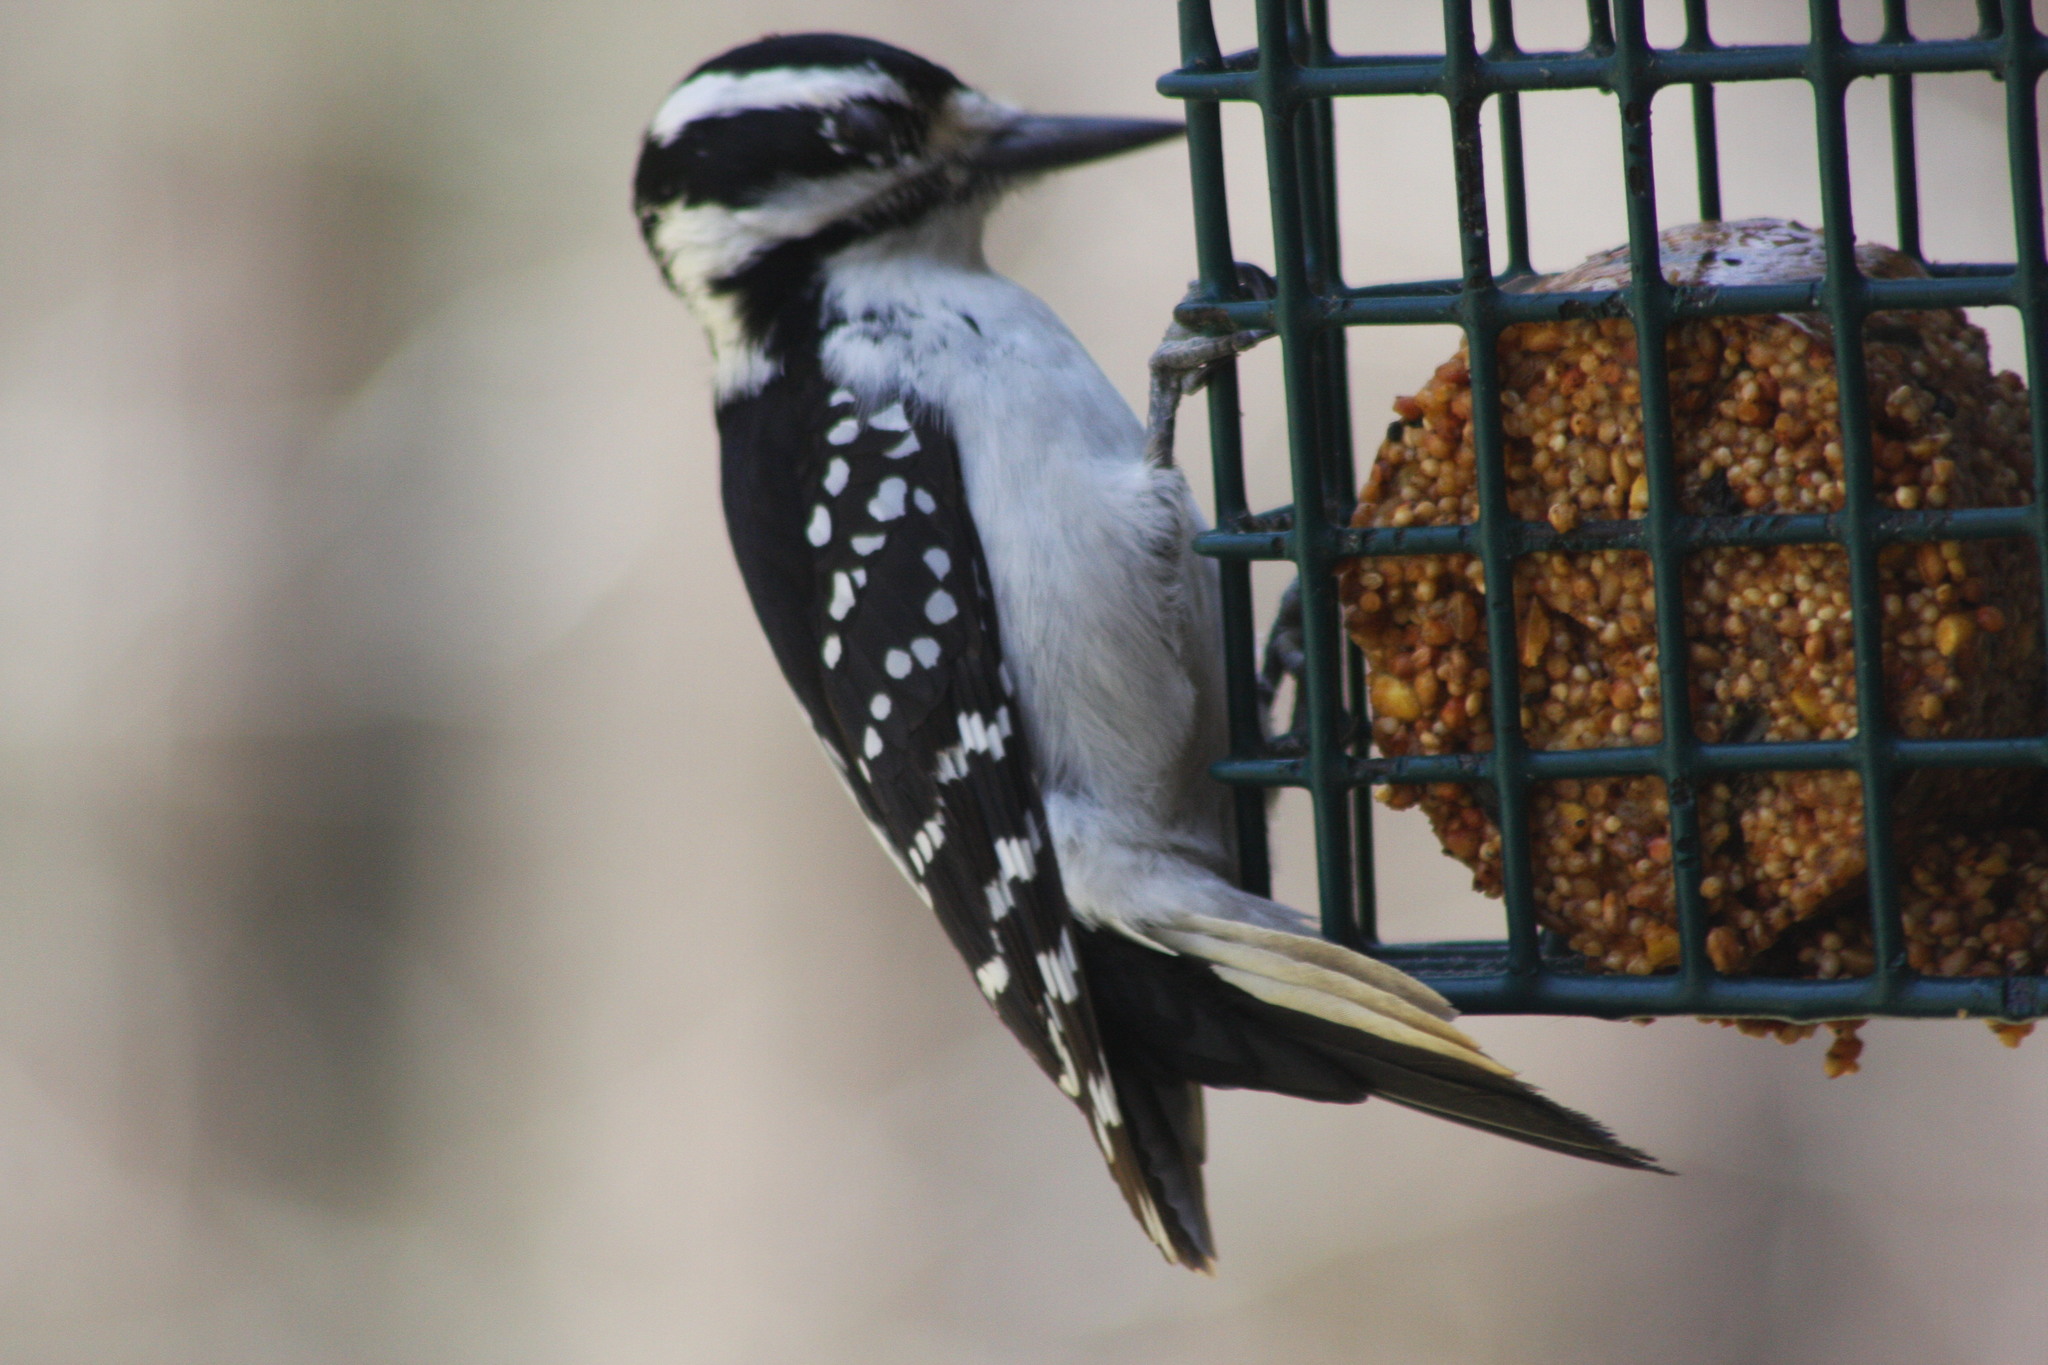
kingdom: Animalia
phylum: Chordata
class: Aves
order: Piciformes
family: Picidae
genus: Leuconotopicus
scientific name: Leuconotopicus villosus
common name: Hairy woodpecker
